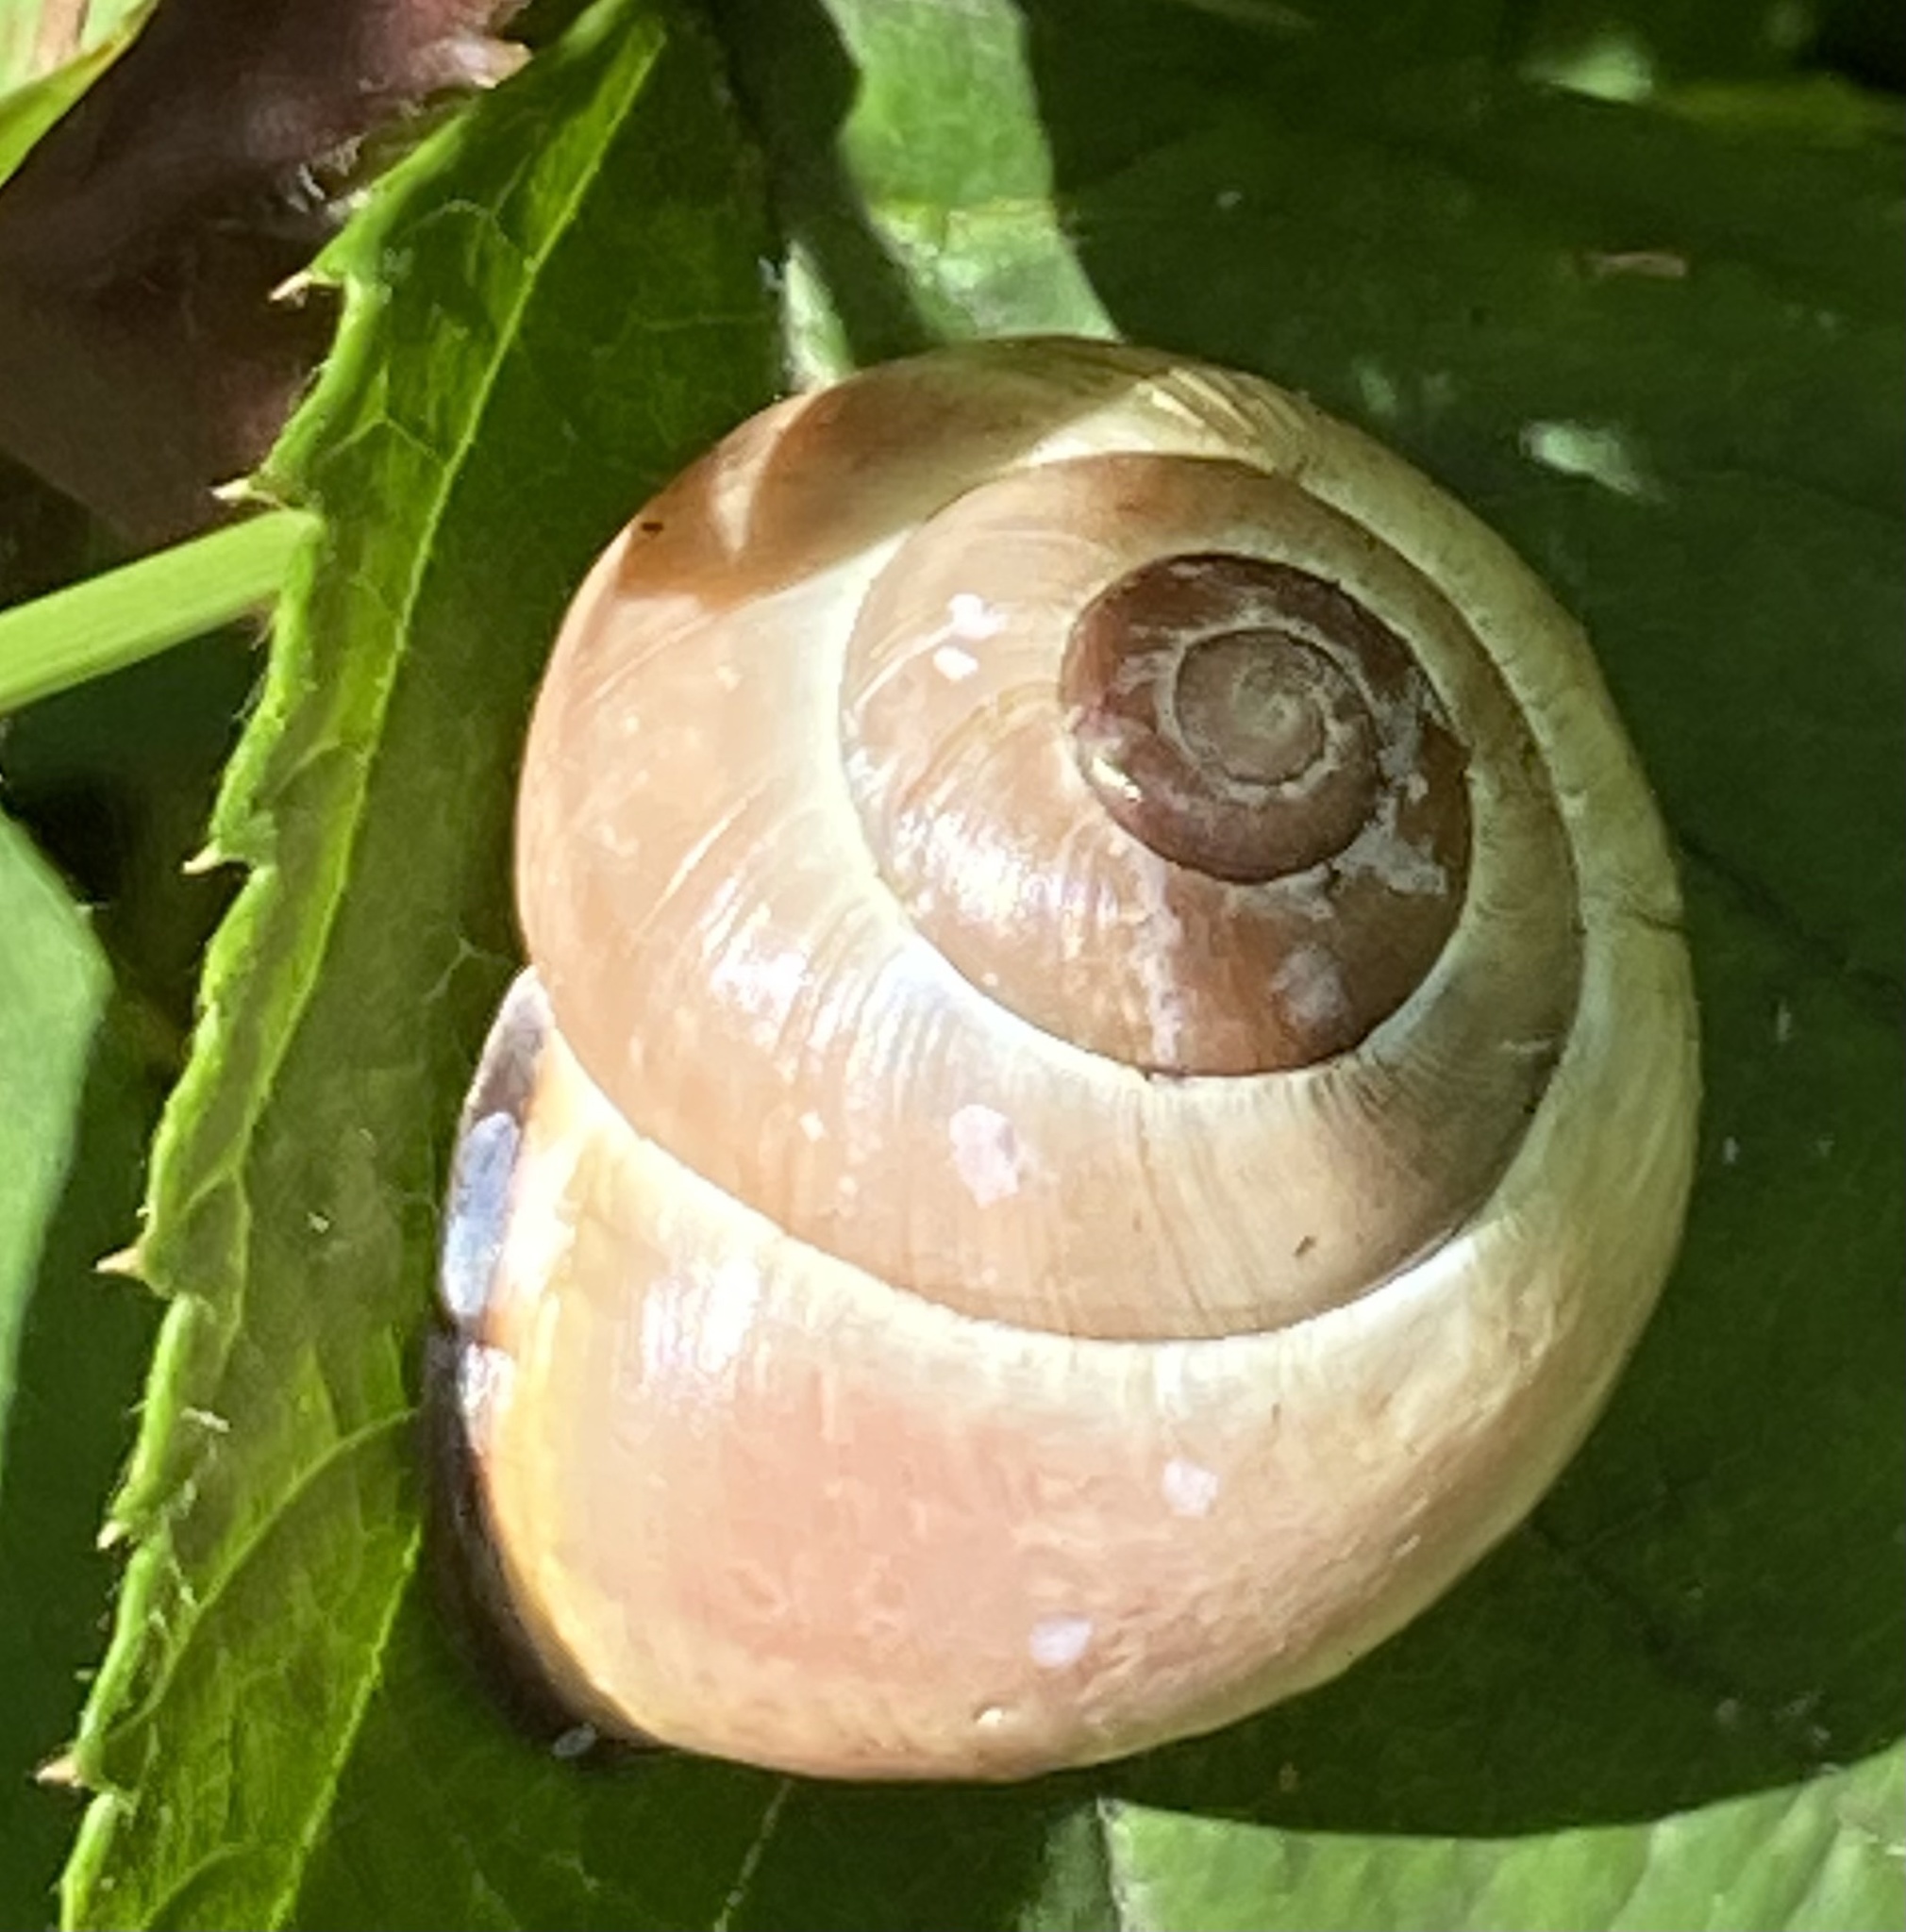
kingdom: Animalia
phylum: Mollusca
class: Gastropoda
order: Stylommatophora
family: Helicidae
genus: Cepaea
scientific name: Cepaea nemoralis
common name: Grovesnail
